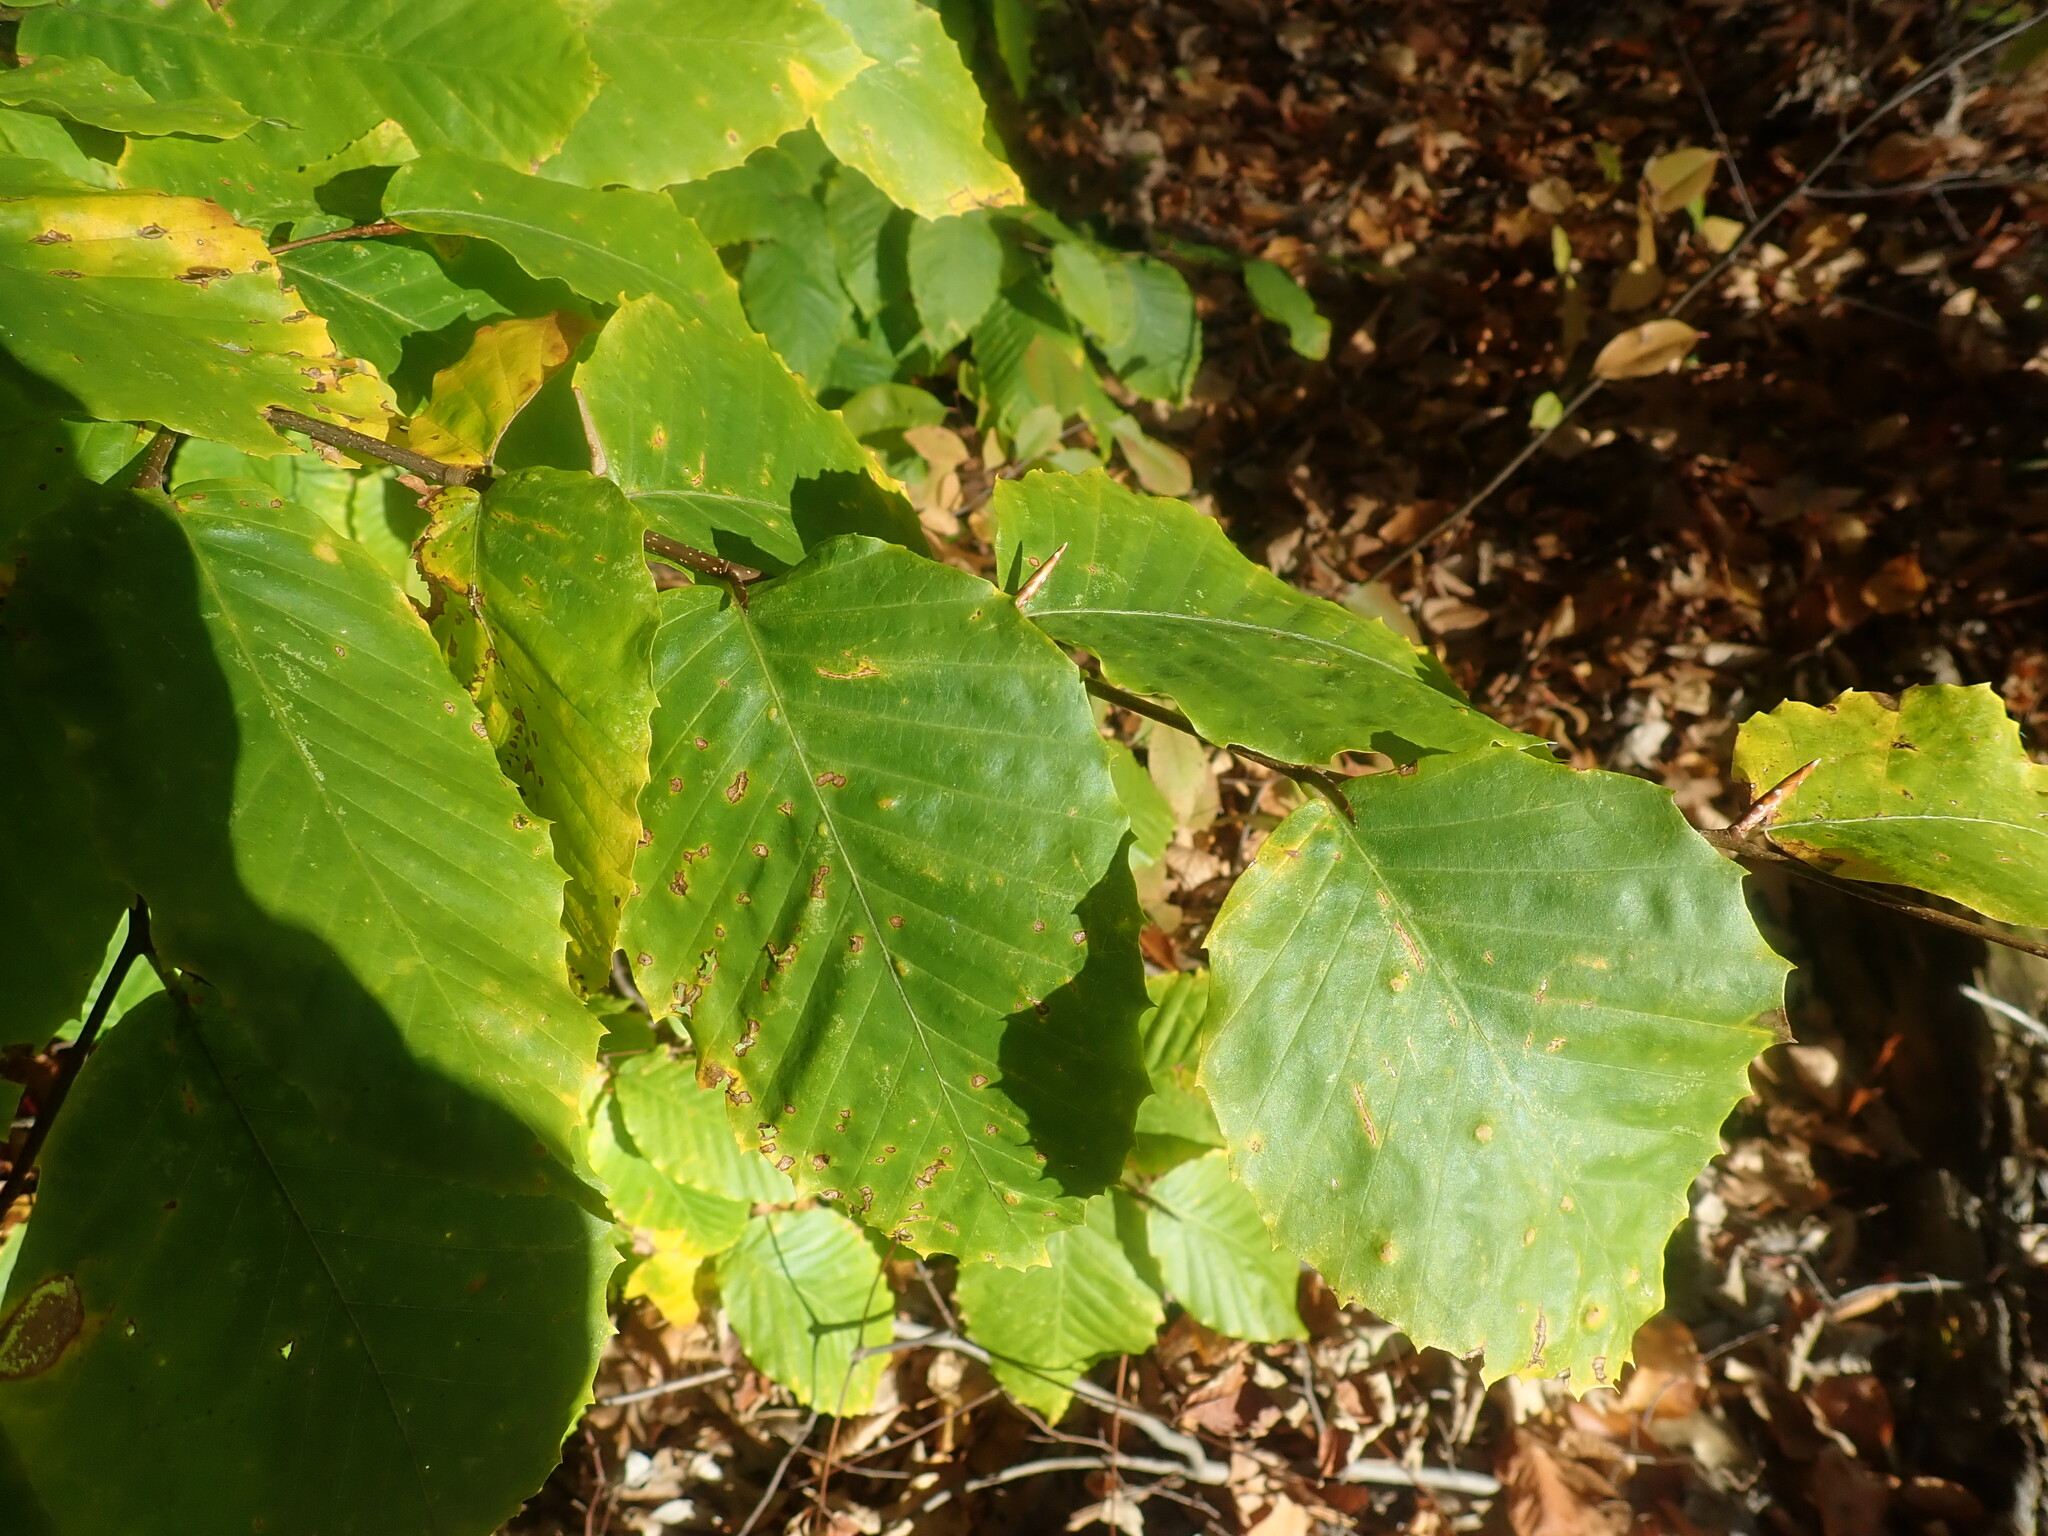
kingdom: Plantae
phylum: Tracheophyta
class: Magnoliopsida
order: Fagales
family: Fagaceae
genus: Fagus
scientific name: Fagus grandifolia
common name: American beech
